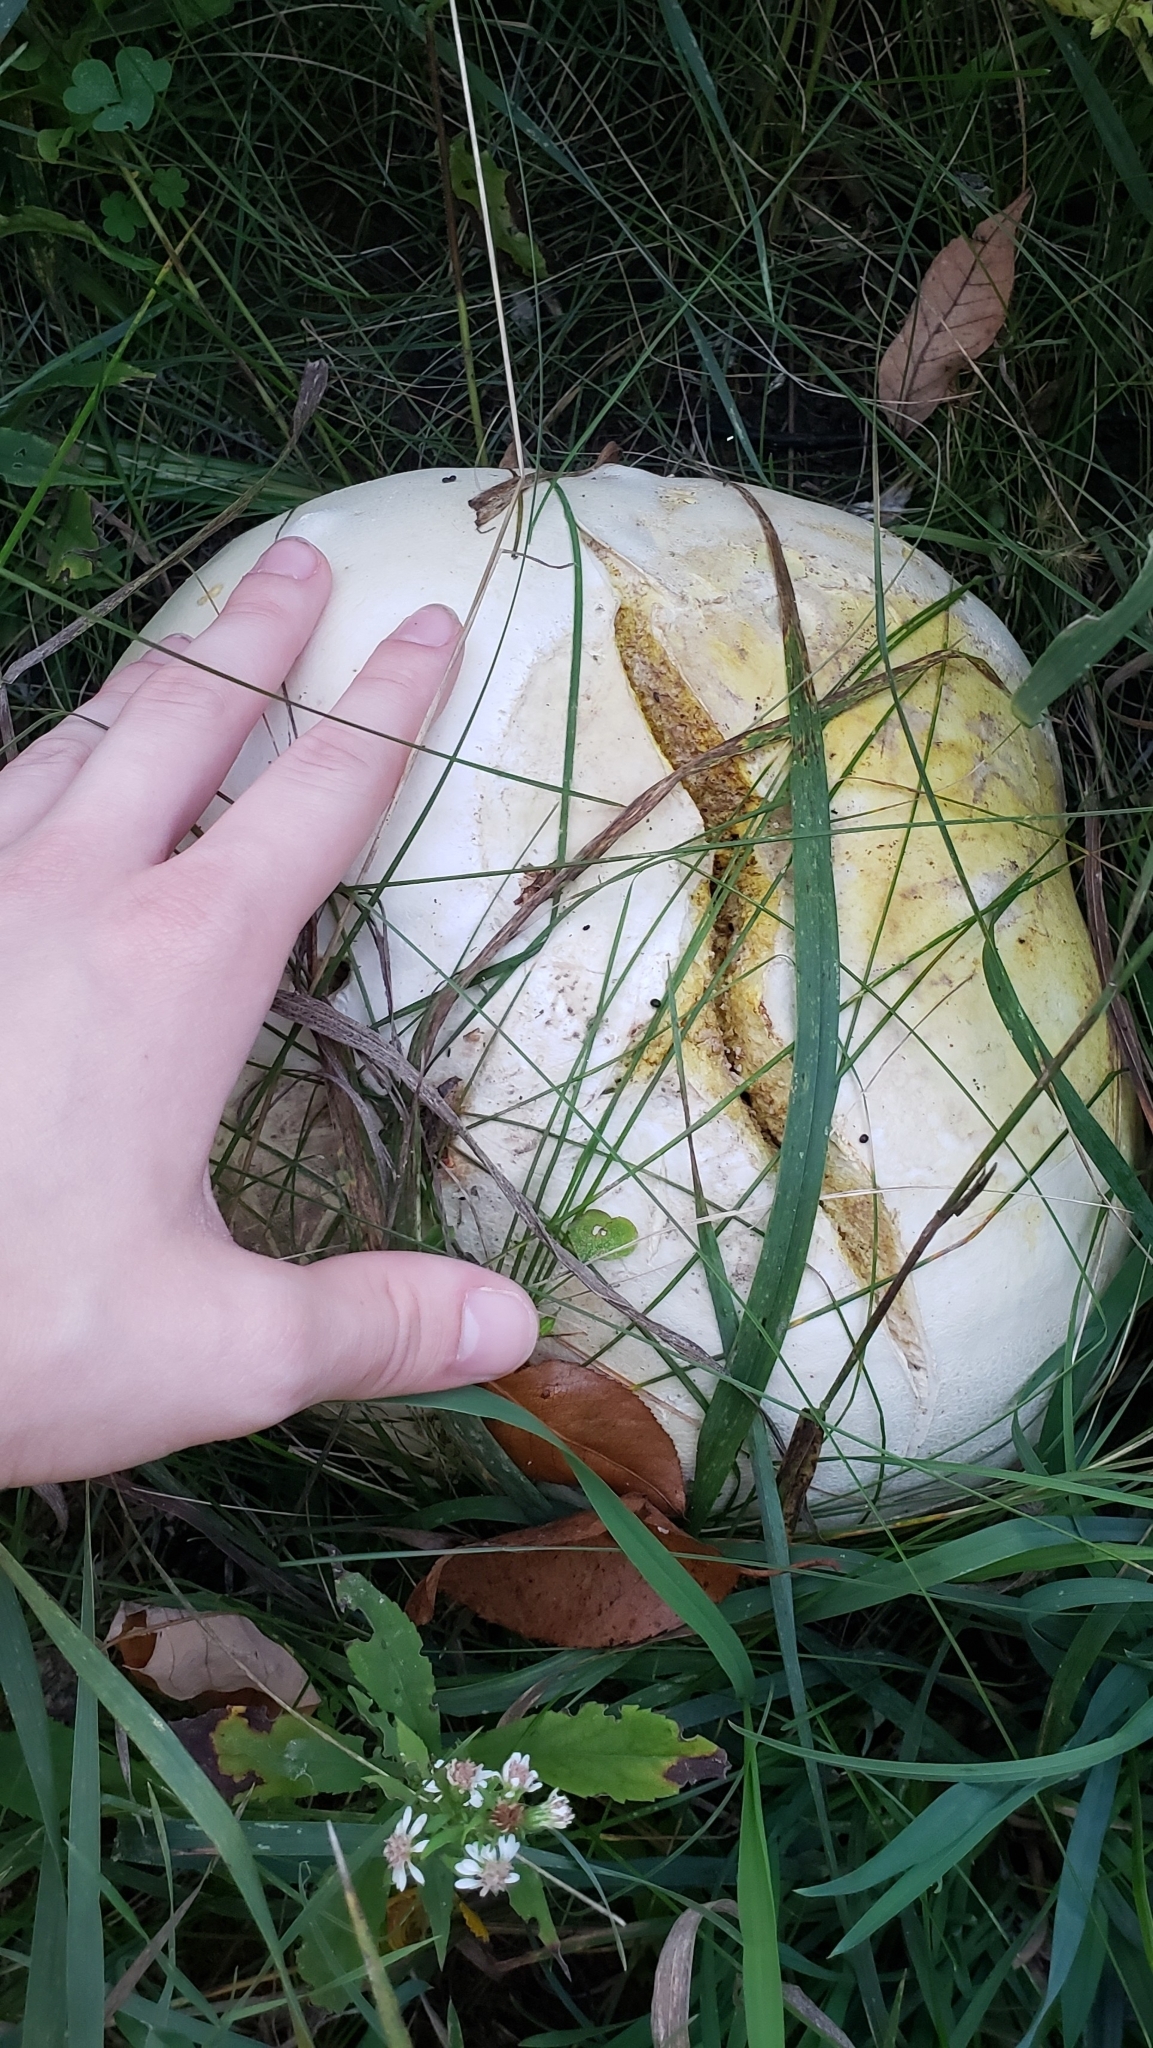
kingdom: Fungi
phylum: Basidiomycota
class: Agaricomycetes
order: Agaricales
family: Lycoperdaceae
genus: Calvatia
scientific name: Calvatia gigantea
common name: Giant puffball
